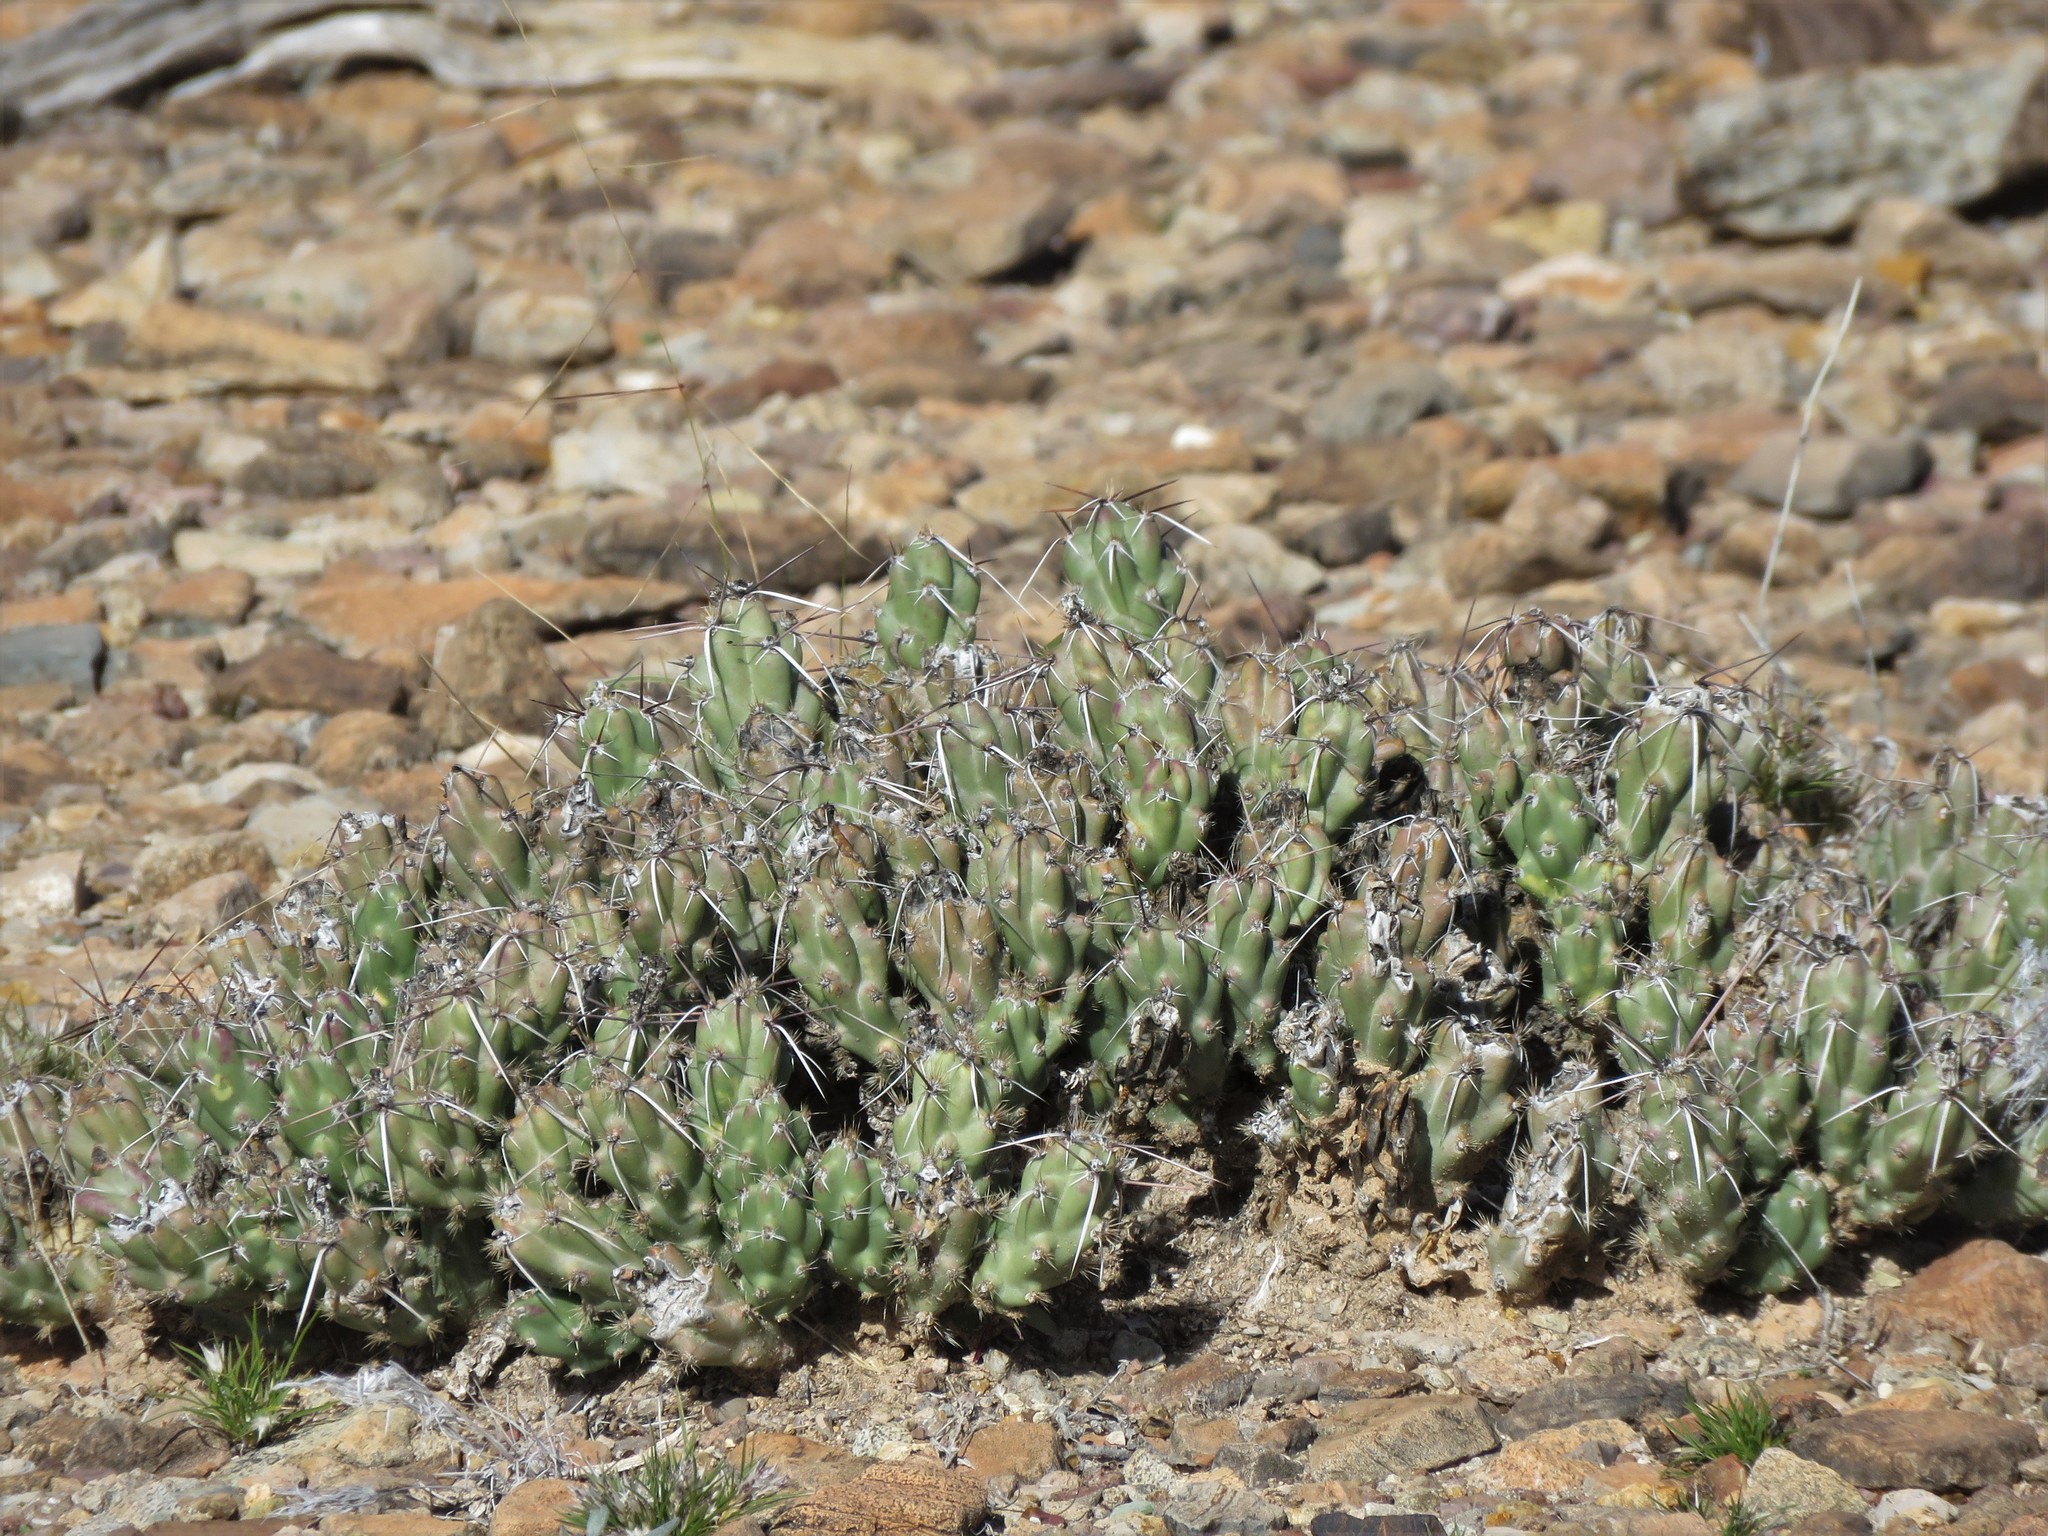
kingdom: Plantae
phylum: Tracheophyta
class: Magnoliopsida
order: Caryophyllales
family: Cactaceae
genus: Grusonia
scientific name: Grusonia aggeria
